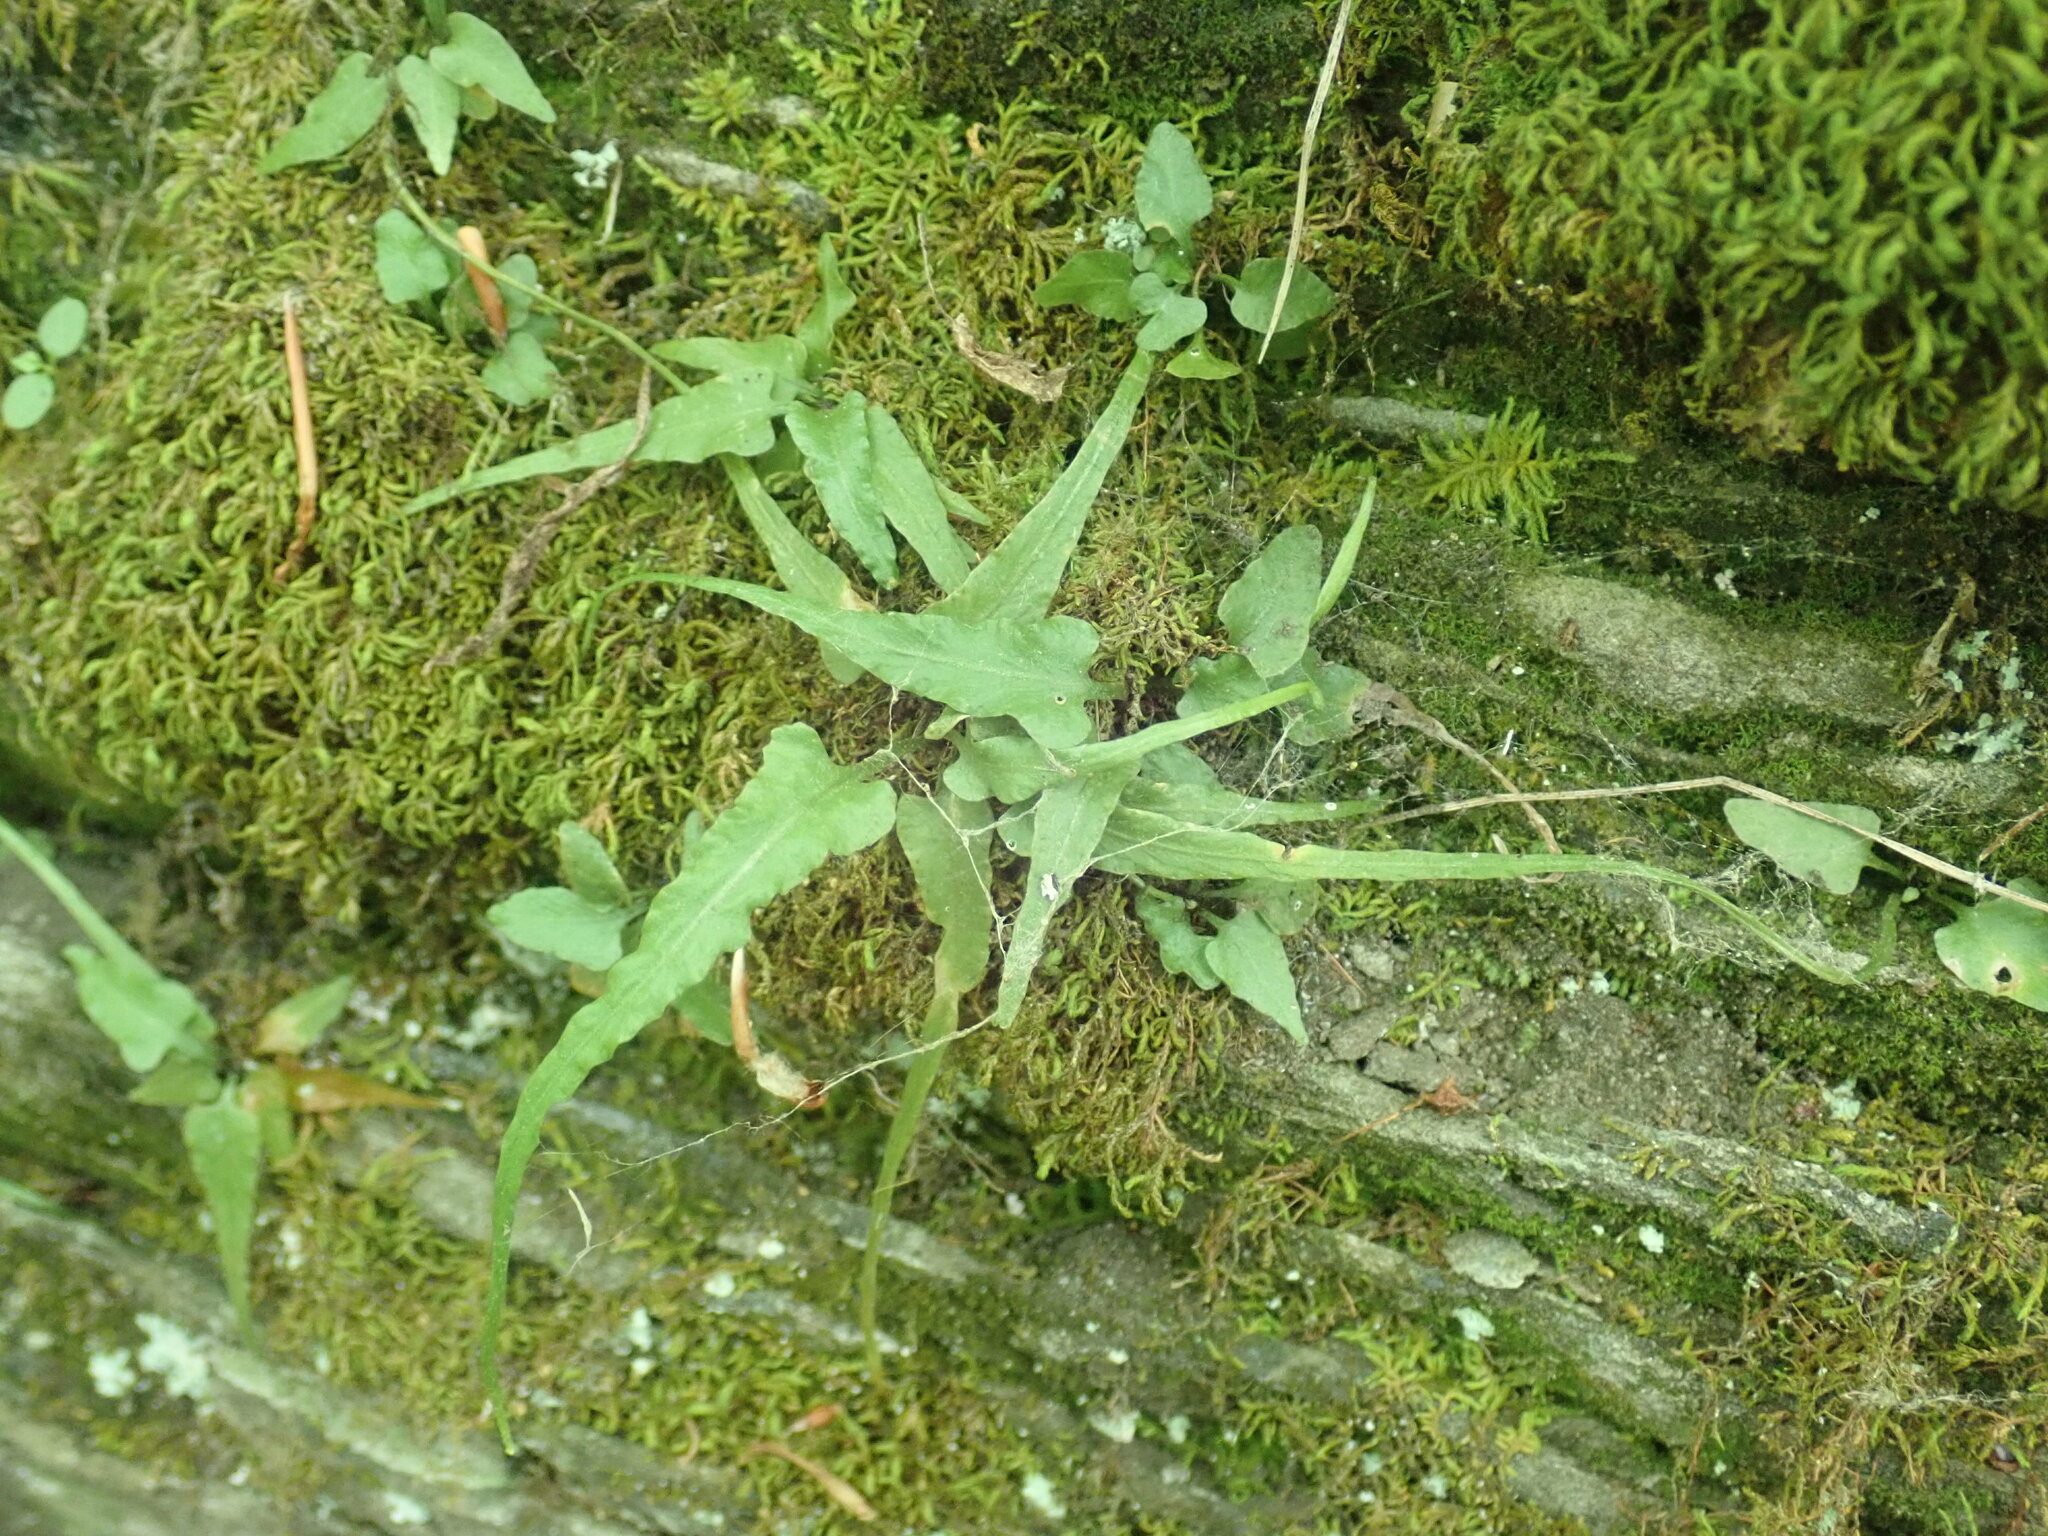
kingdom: Plantae
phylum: Tracheophyta
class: Polypodiopsida
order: Polypodiales
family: Aspleniaceae
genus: Asplenium
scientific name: Asplenium rhizophyllum
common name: Walking fern
